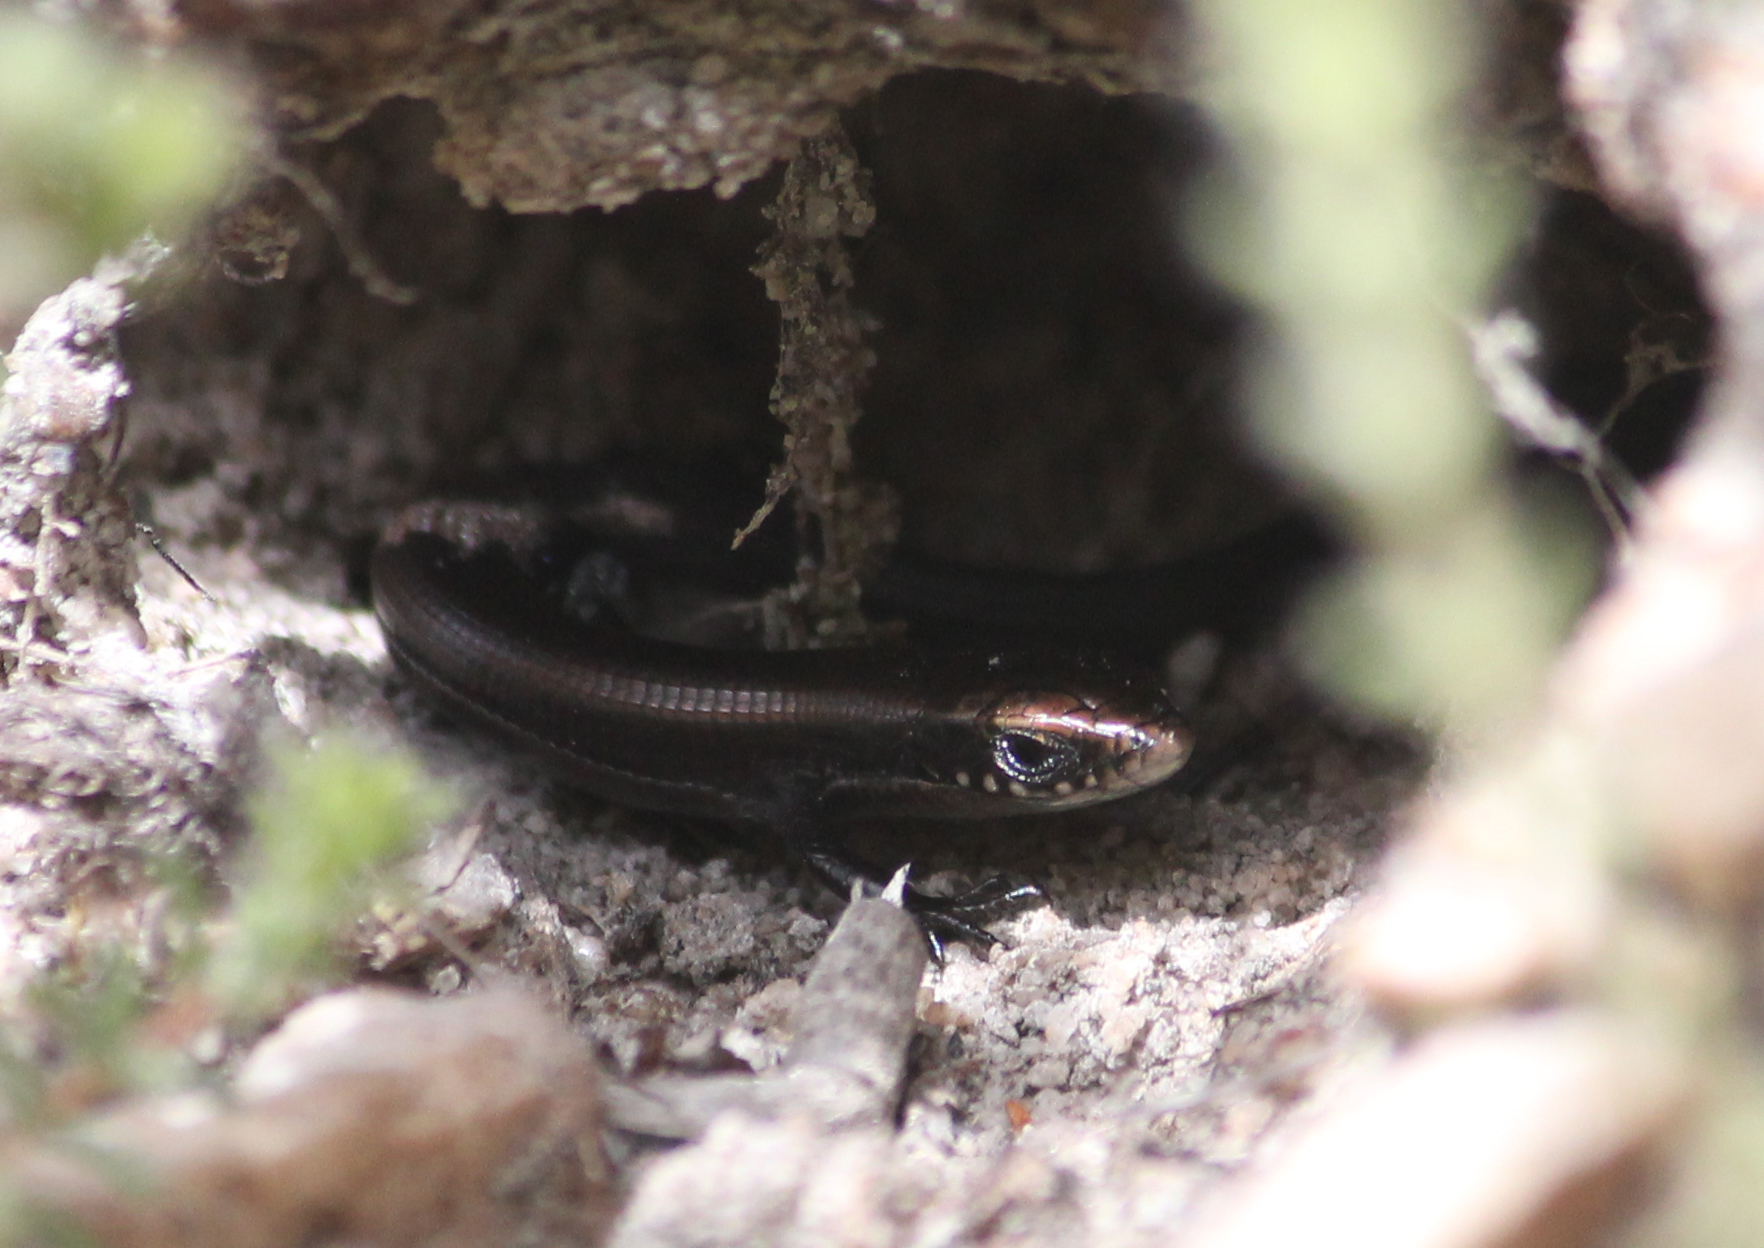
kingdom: Animalia
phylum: Chordata
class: Squamata
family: Gerrhosauridae
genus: Tetradactylus
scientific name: Tetradactylus seps
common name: Five-toed whip lizard
